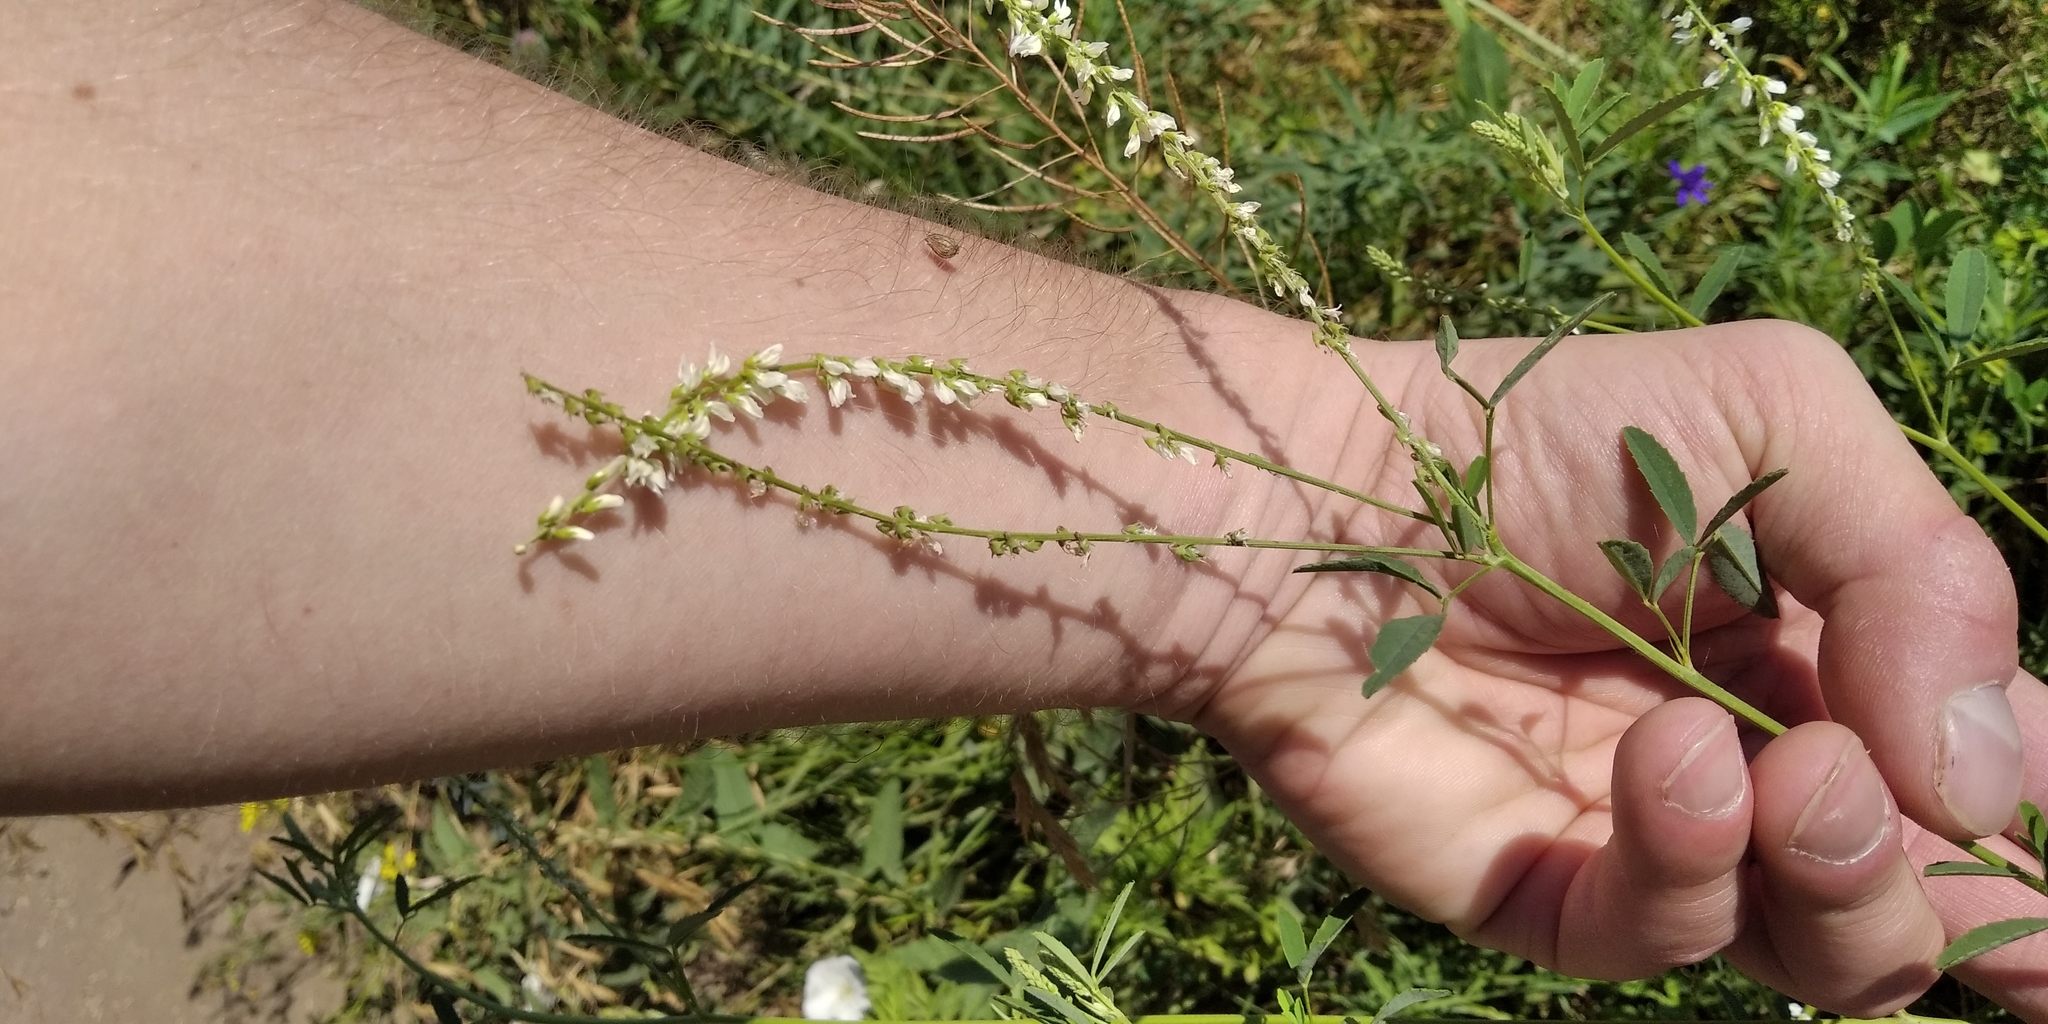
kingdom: Plantae
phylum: Tracheophyta
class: Magnoliopsida
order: Fabales
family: Fabaceae
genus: Melilotus
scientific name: Melilotus albus
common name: White melilot
